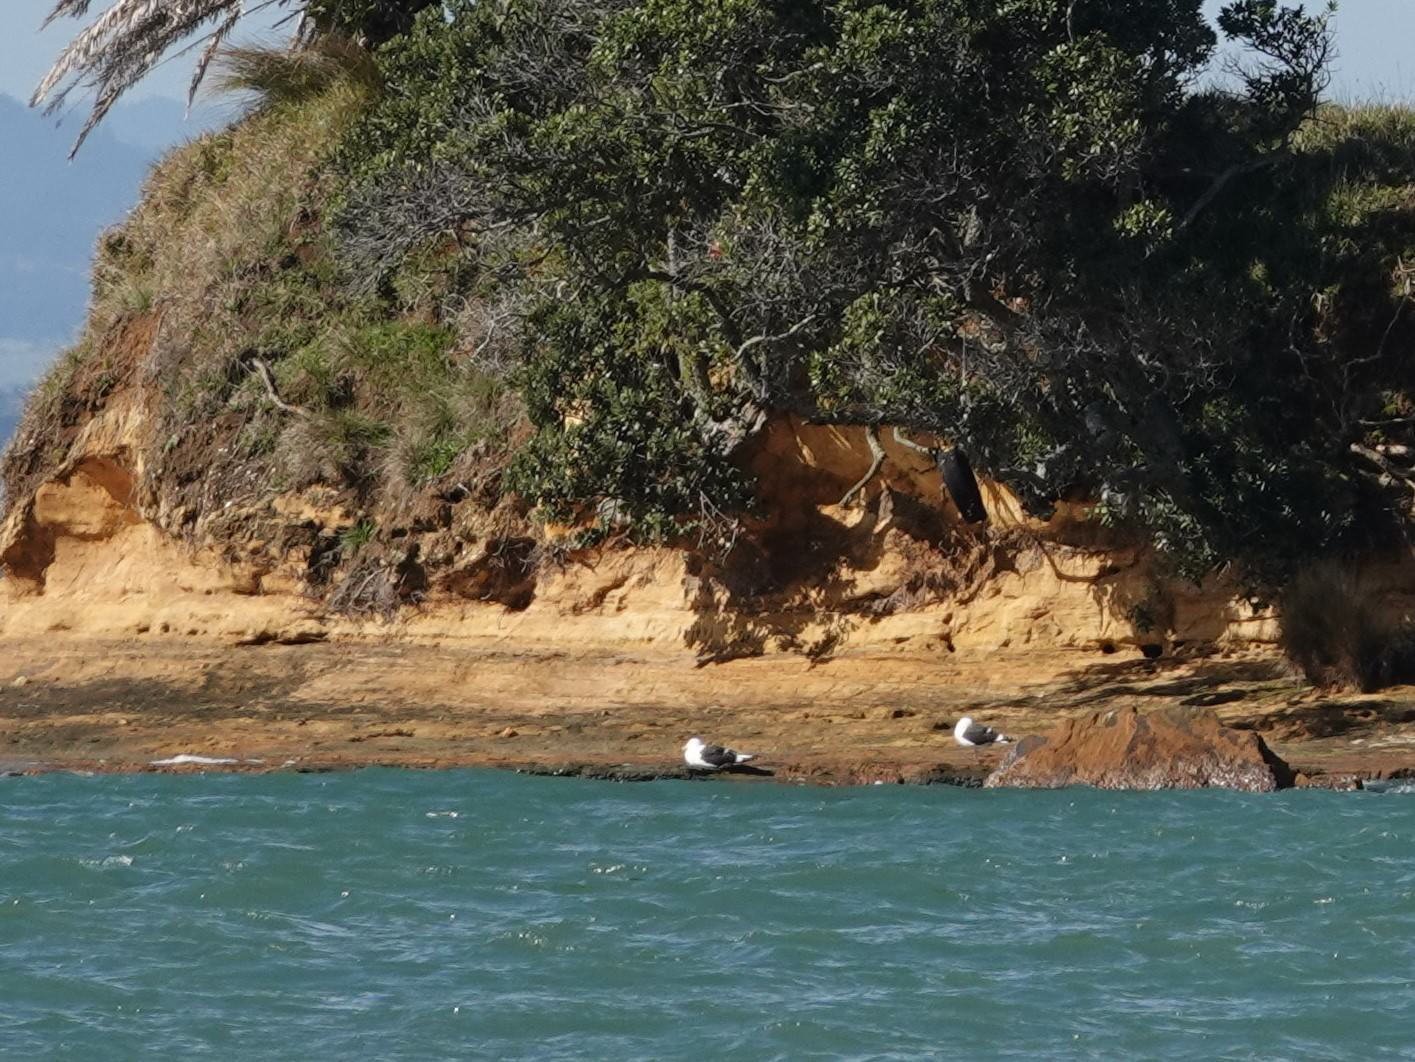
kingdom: Animalia
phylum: Chordata
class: Aves
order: Charadriiformes
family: Laridae
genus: Larus
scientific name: Larus dominicanus
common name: Kelp gull
